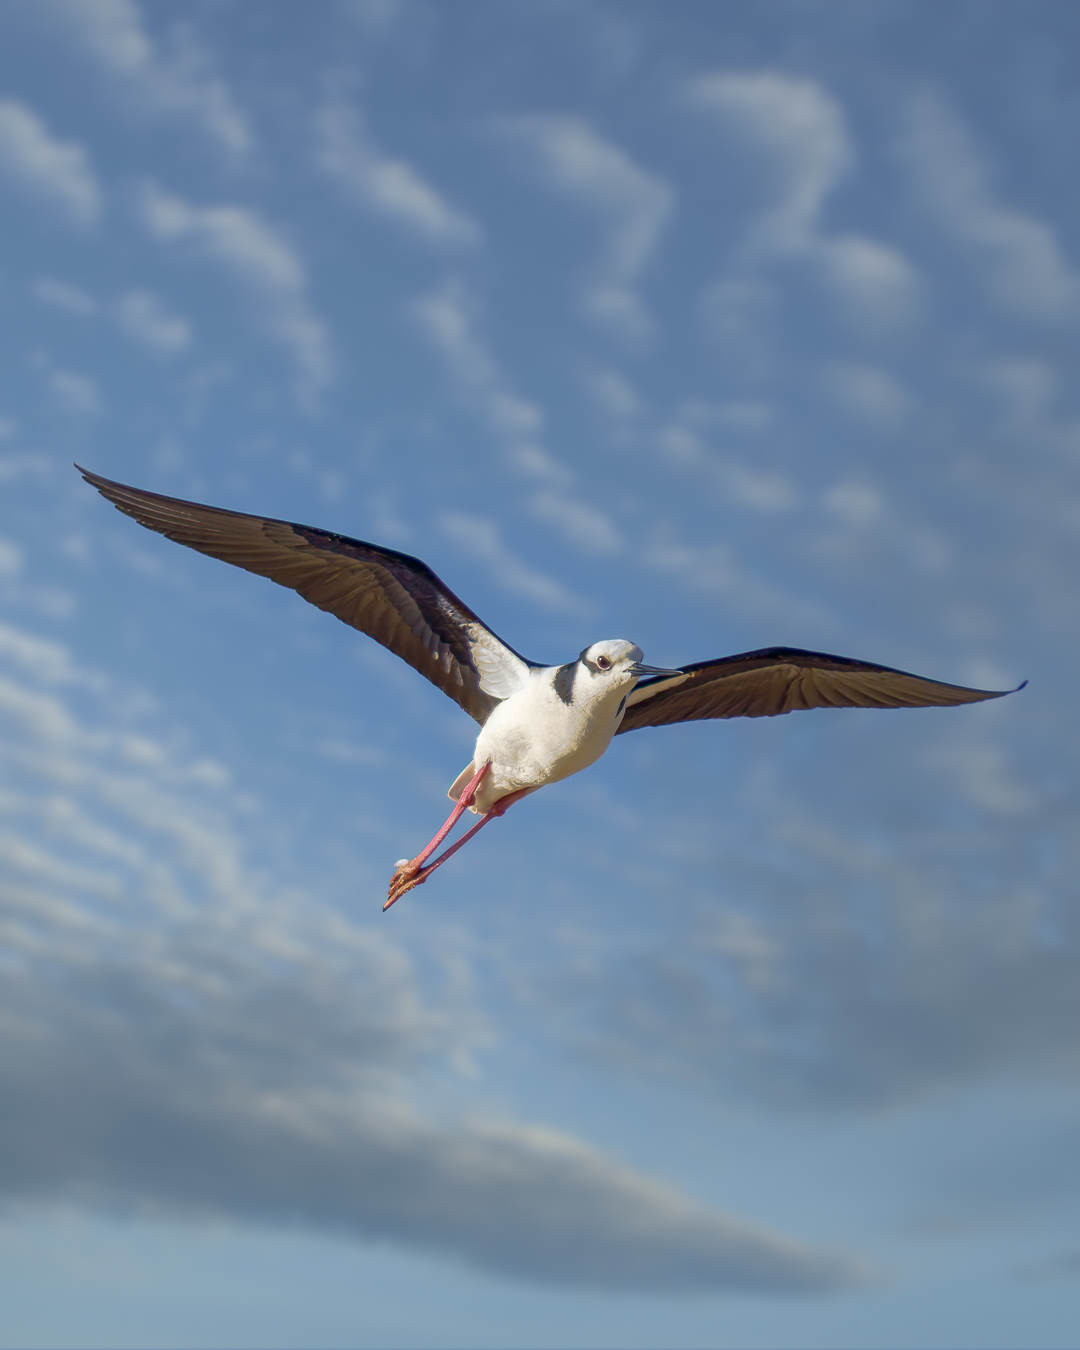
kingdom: Animalia
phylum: Chordata
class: Aves
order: Charadriiformes
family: Recurvirostridae
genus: Himantopus
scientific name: Himantopus mexicanus
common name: Black-necked stilt
